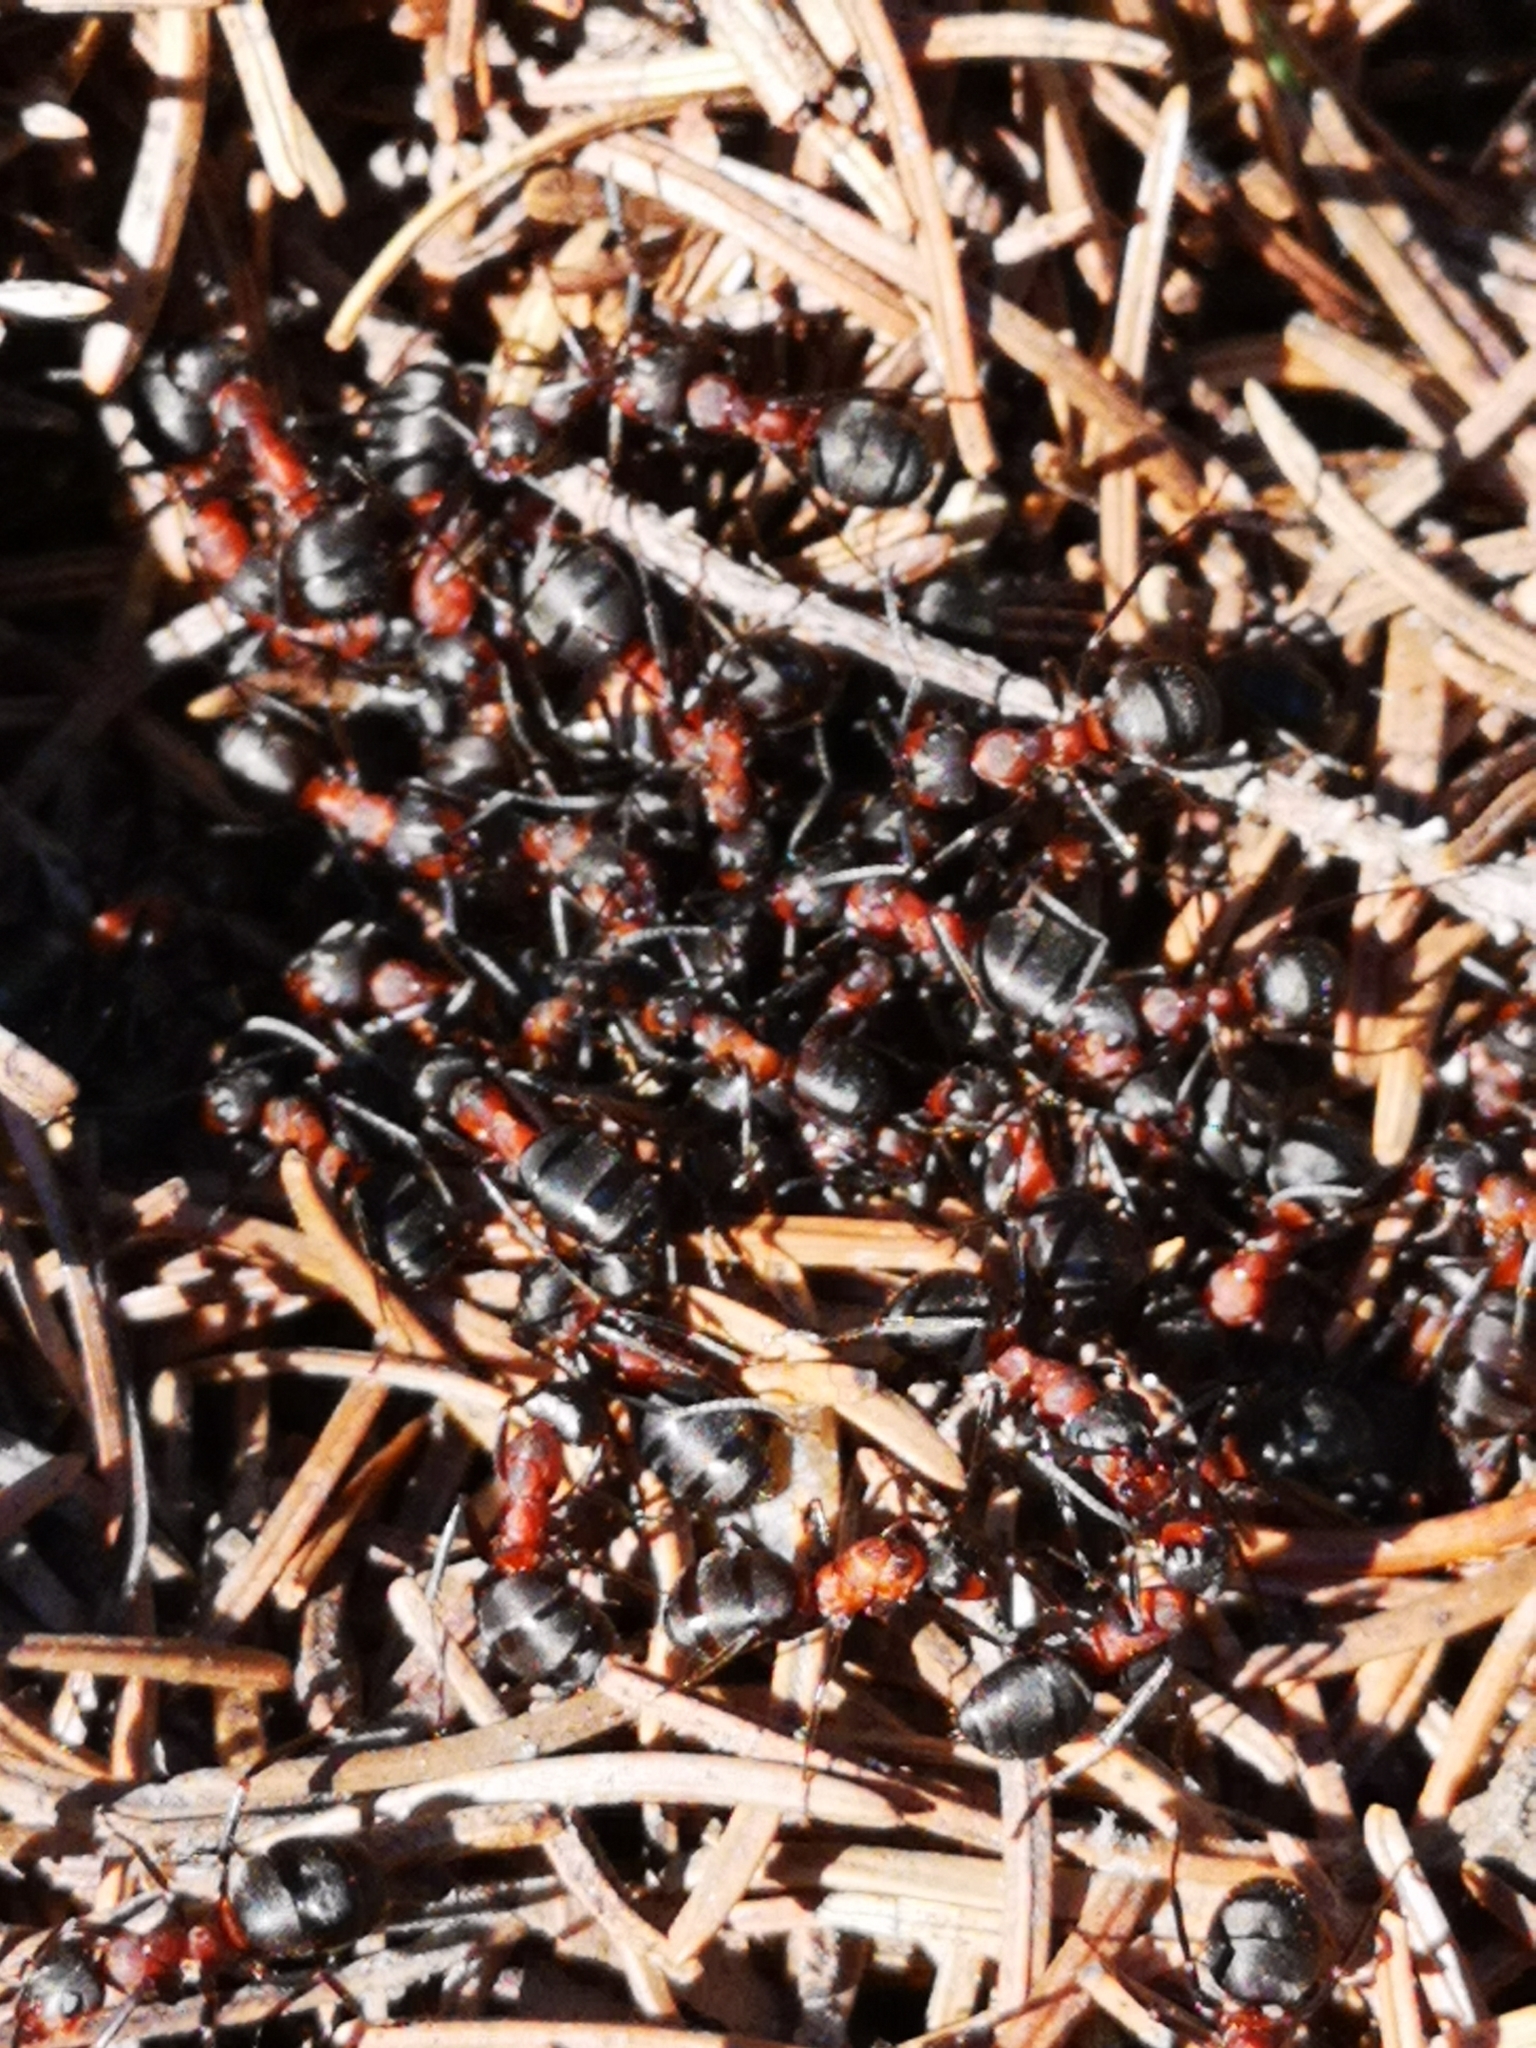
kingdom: Animalia
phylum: Arthropoda
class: Insecta
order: Hymenoptera
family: Formicidae
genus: Formica
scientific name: Formica
